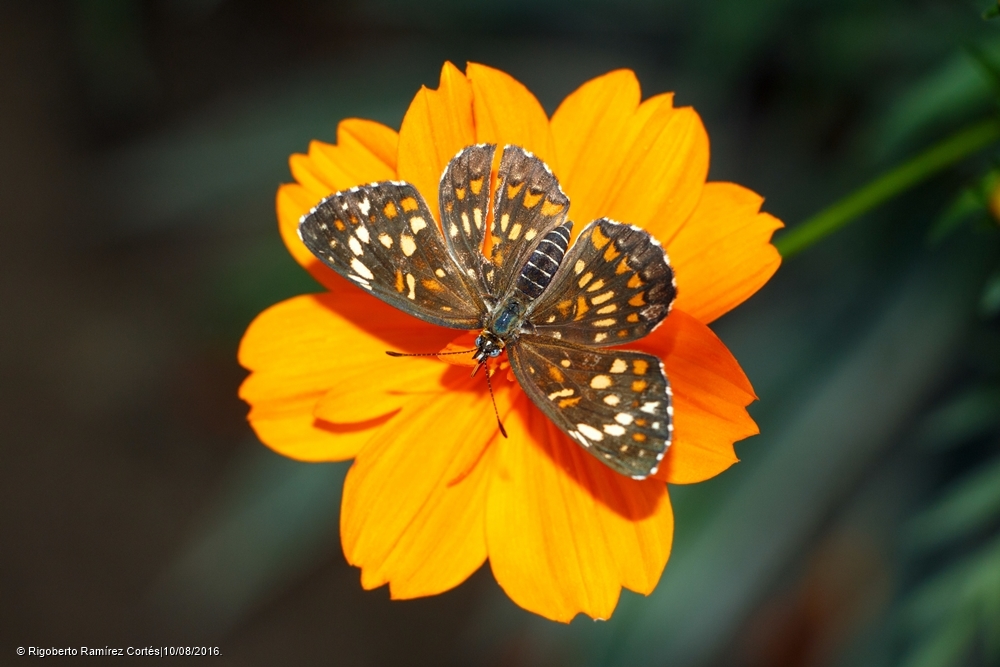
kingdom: Animalia
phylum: Arthropoda
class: Insecta
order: Lepidoptera
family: Nymphalidae
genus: Thessalia
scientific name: Thessalia theona
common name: Nymphalid moth
